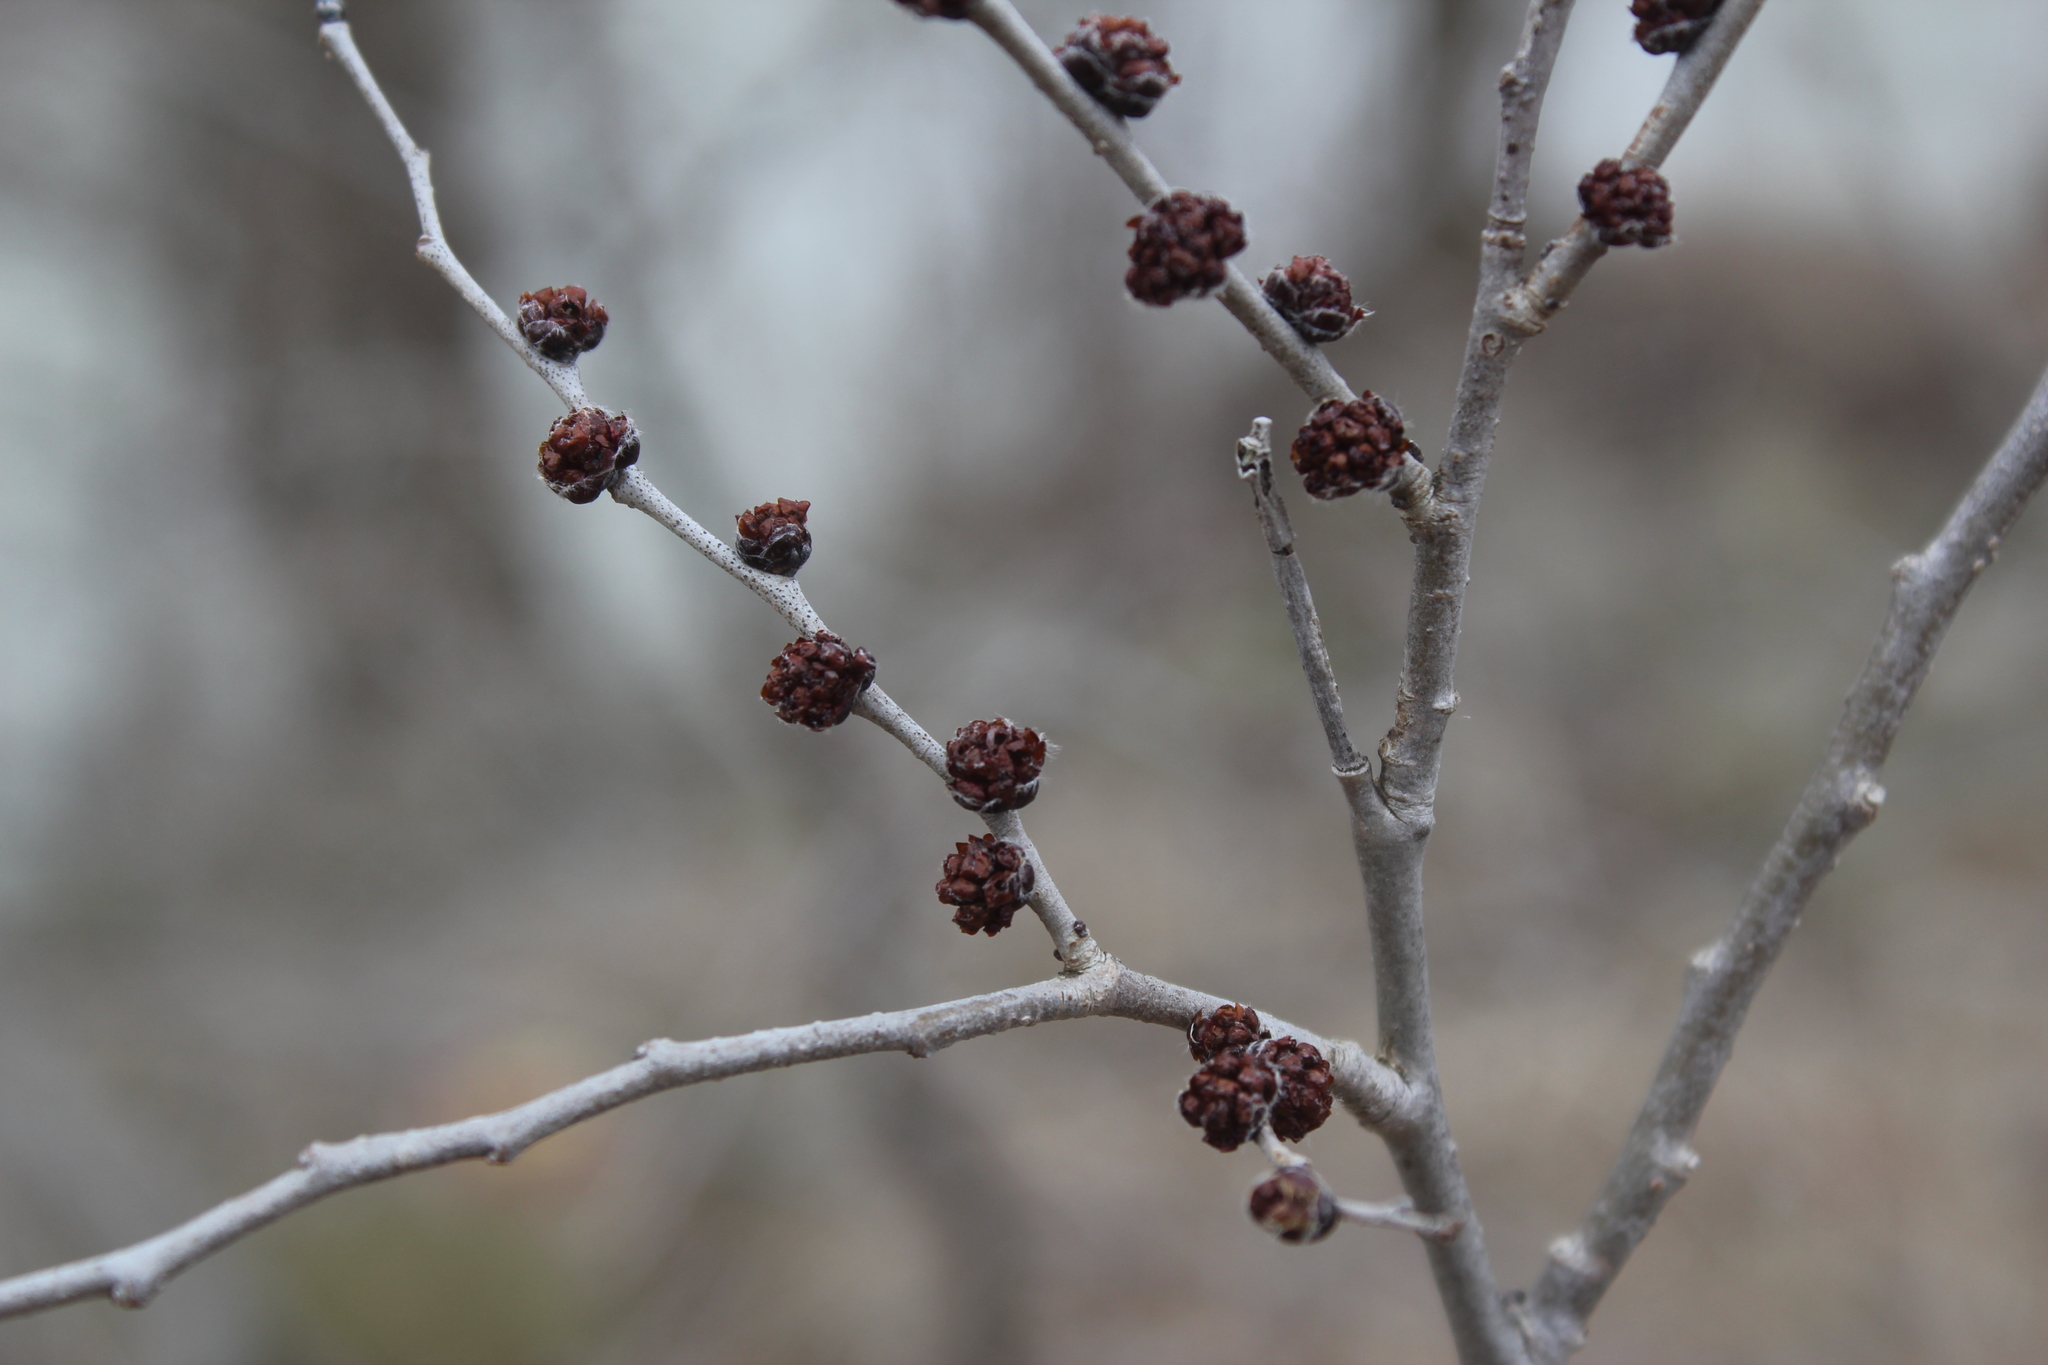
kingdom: Plantae
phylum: Tracheophyta
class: Magnoliopsida
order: Rosales
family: Ulmaceae
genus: Ulmus
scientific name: Ulmus pumila
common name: Siberian elm
